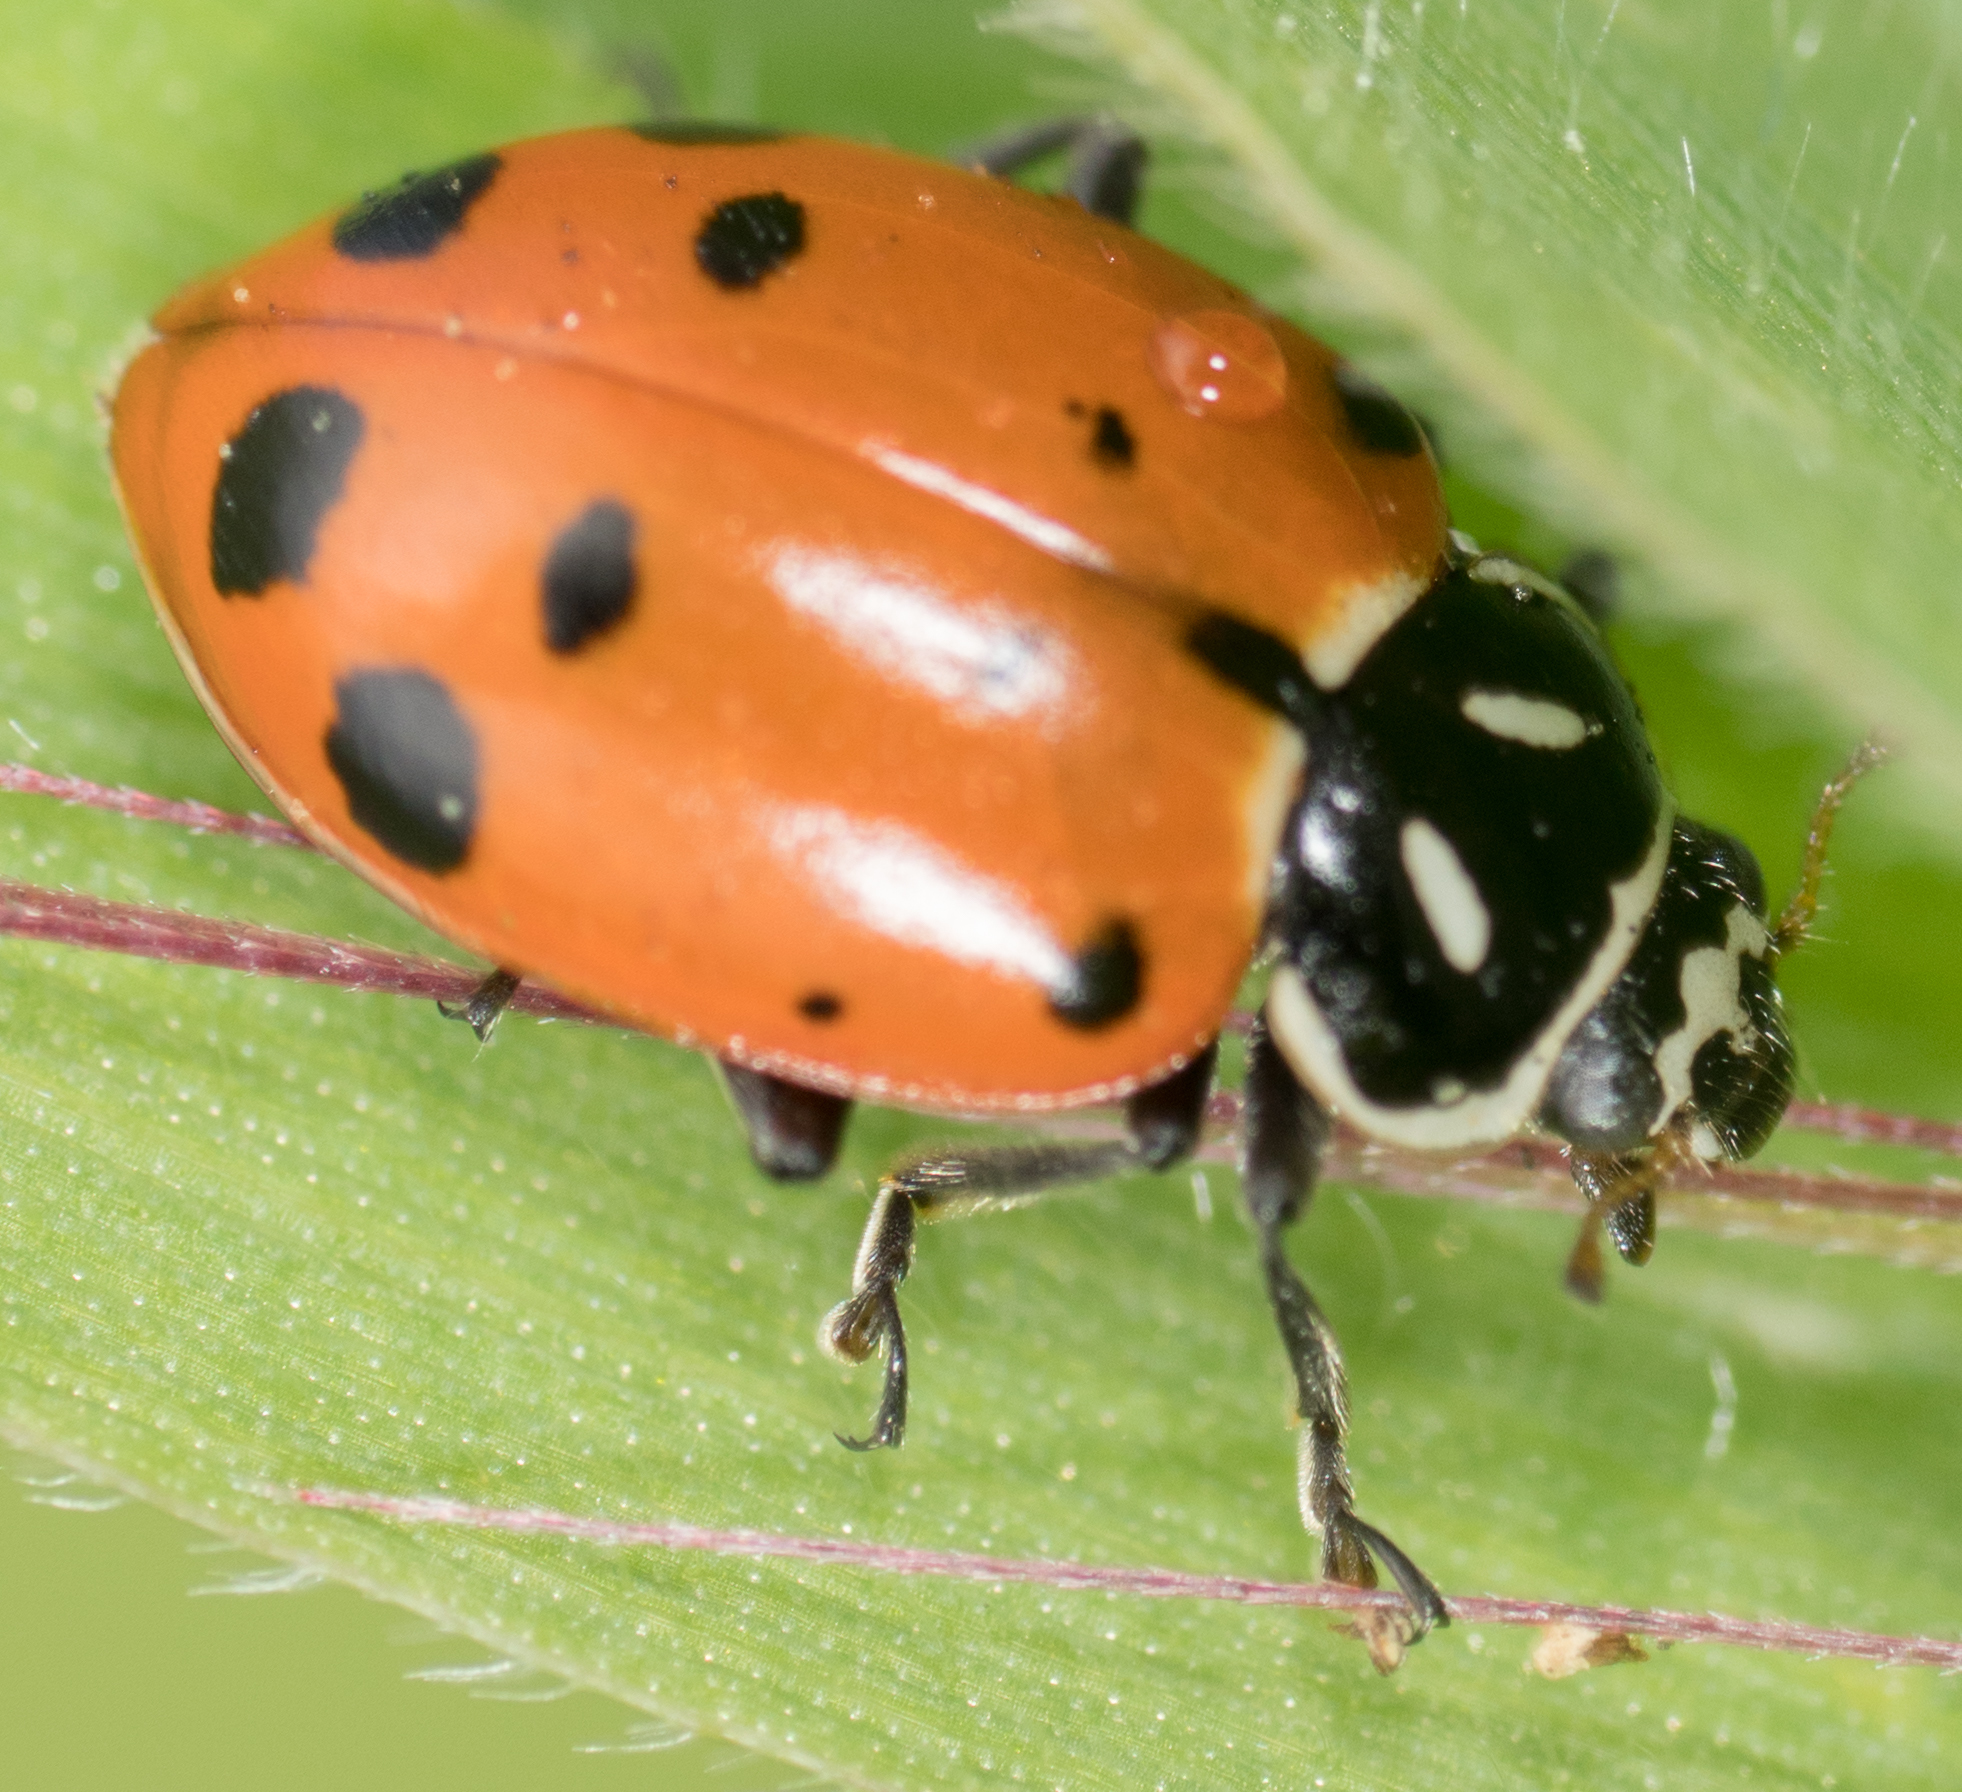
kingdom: Animalia
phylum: Arthropoda
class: Insecta
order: Coleoptera
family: Coccinellidae
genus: Hippodamia
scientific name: Hippodamia convergens
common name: Convergent lady beetle
